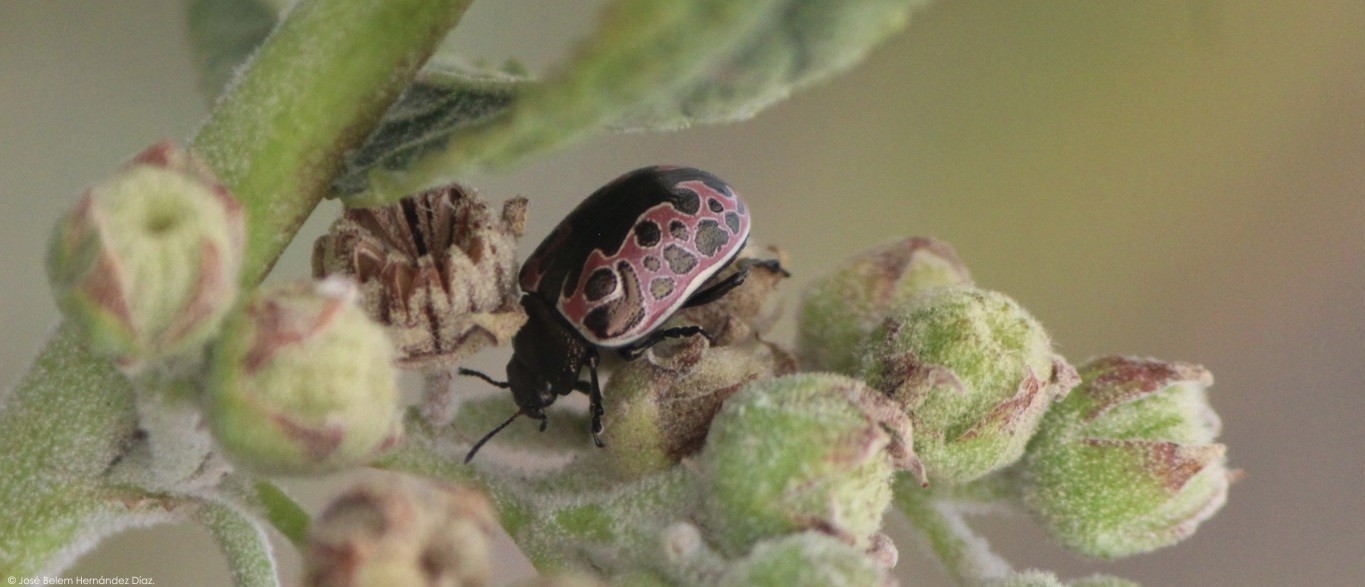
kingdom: Animalia
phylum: Arthropoda
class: Insecta
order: Coleoptera
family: Chrysomelidae
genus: Calligrapha
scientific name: Calligrapha diversa
